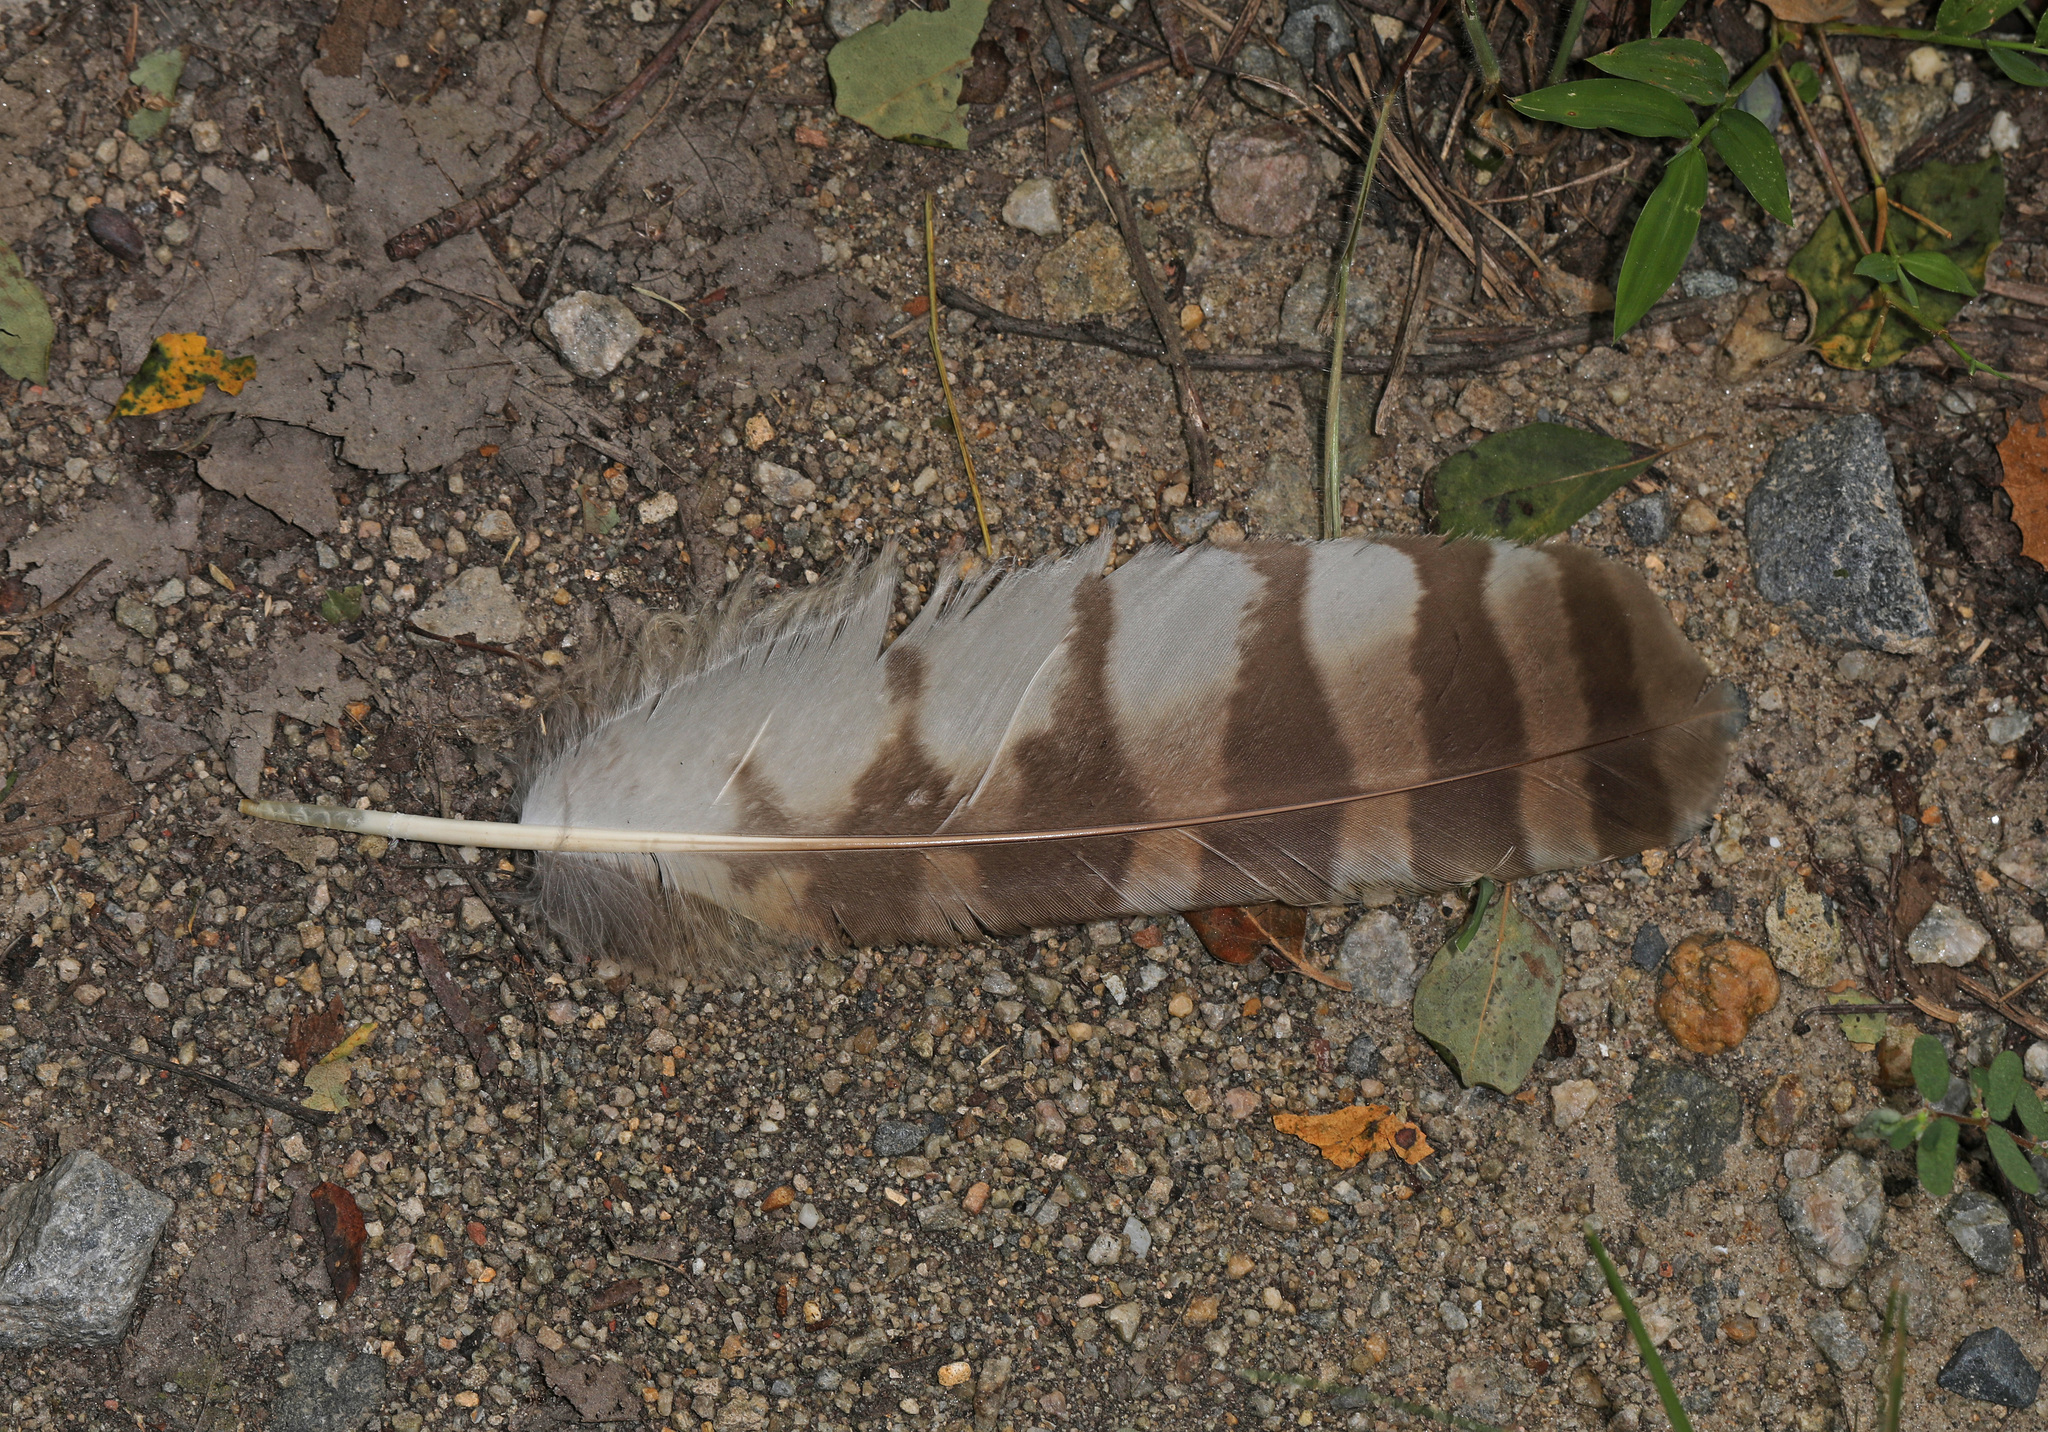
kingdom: Animalia
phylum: Chordata
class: Aves
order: Strigiformes
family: Strigidae
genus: Strix
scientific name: Strix varia
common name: Barred owl
